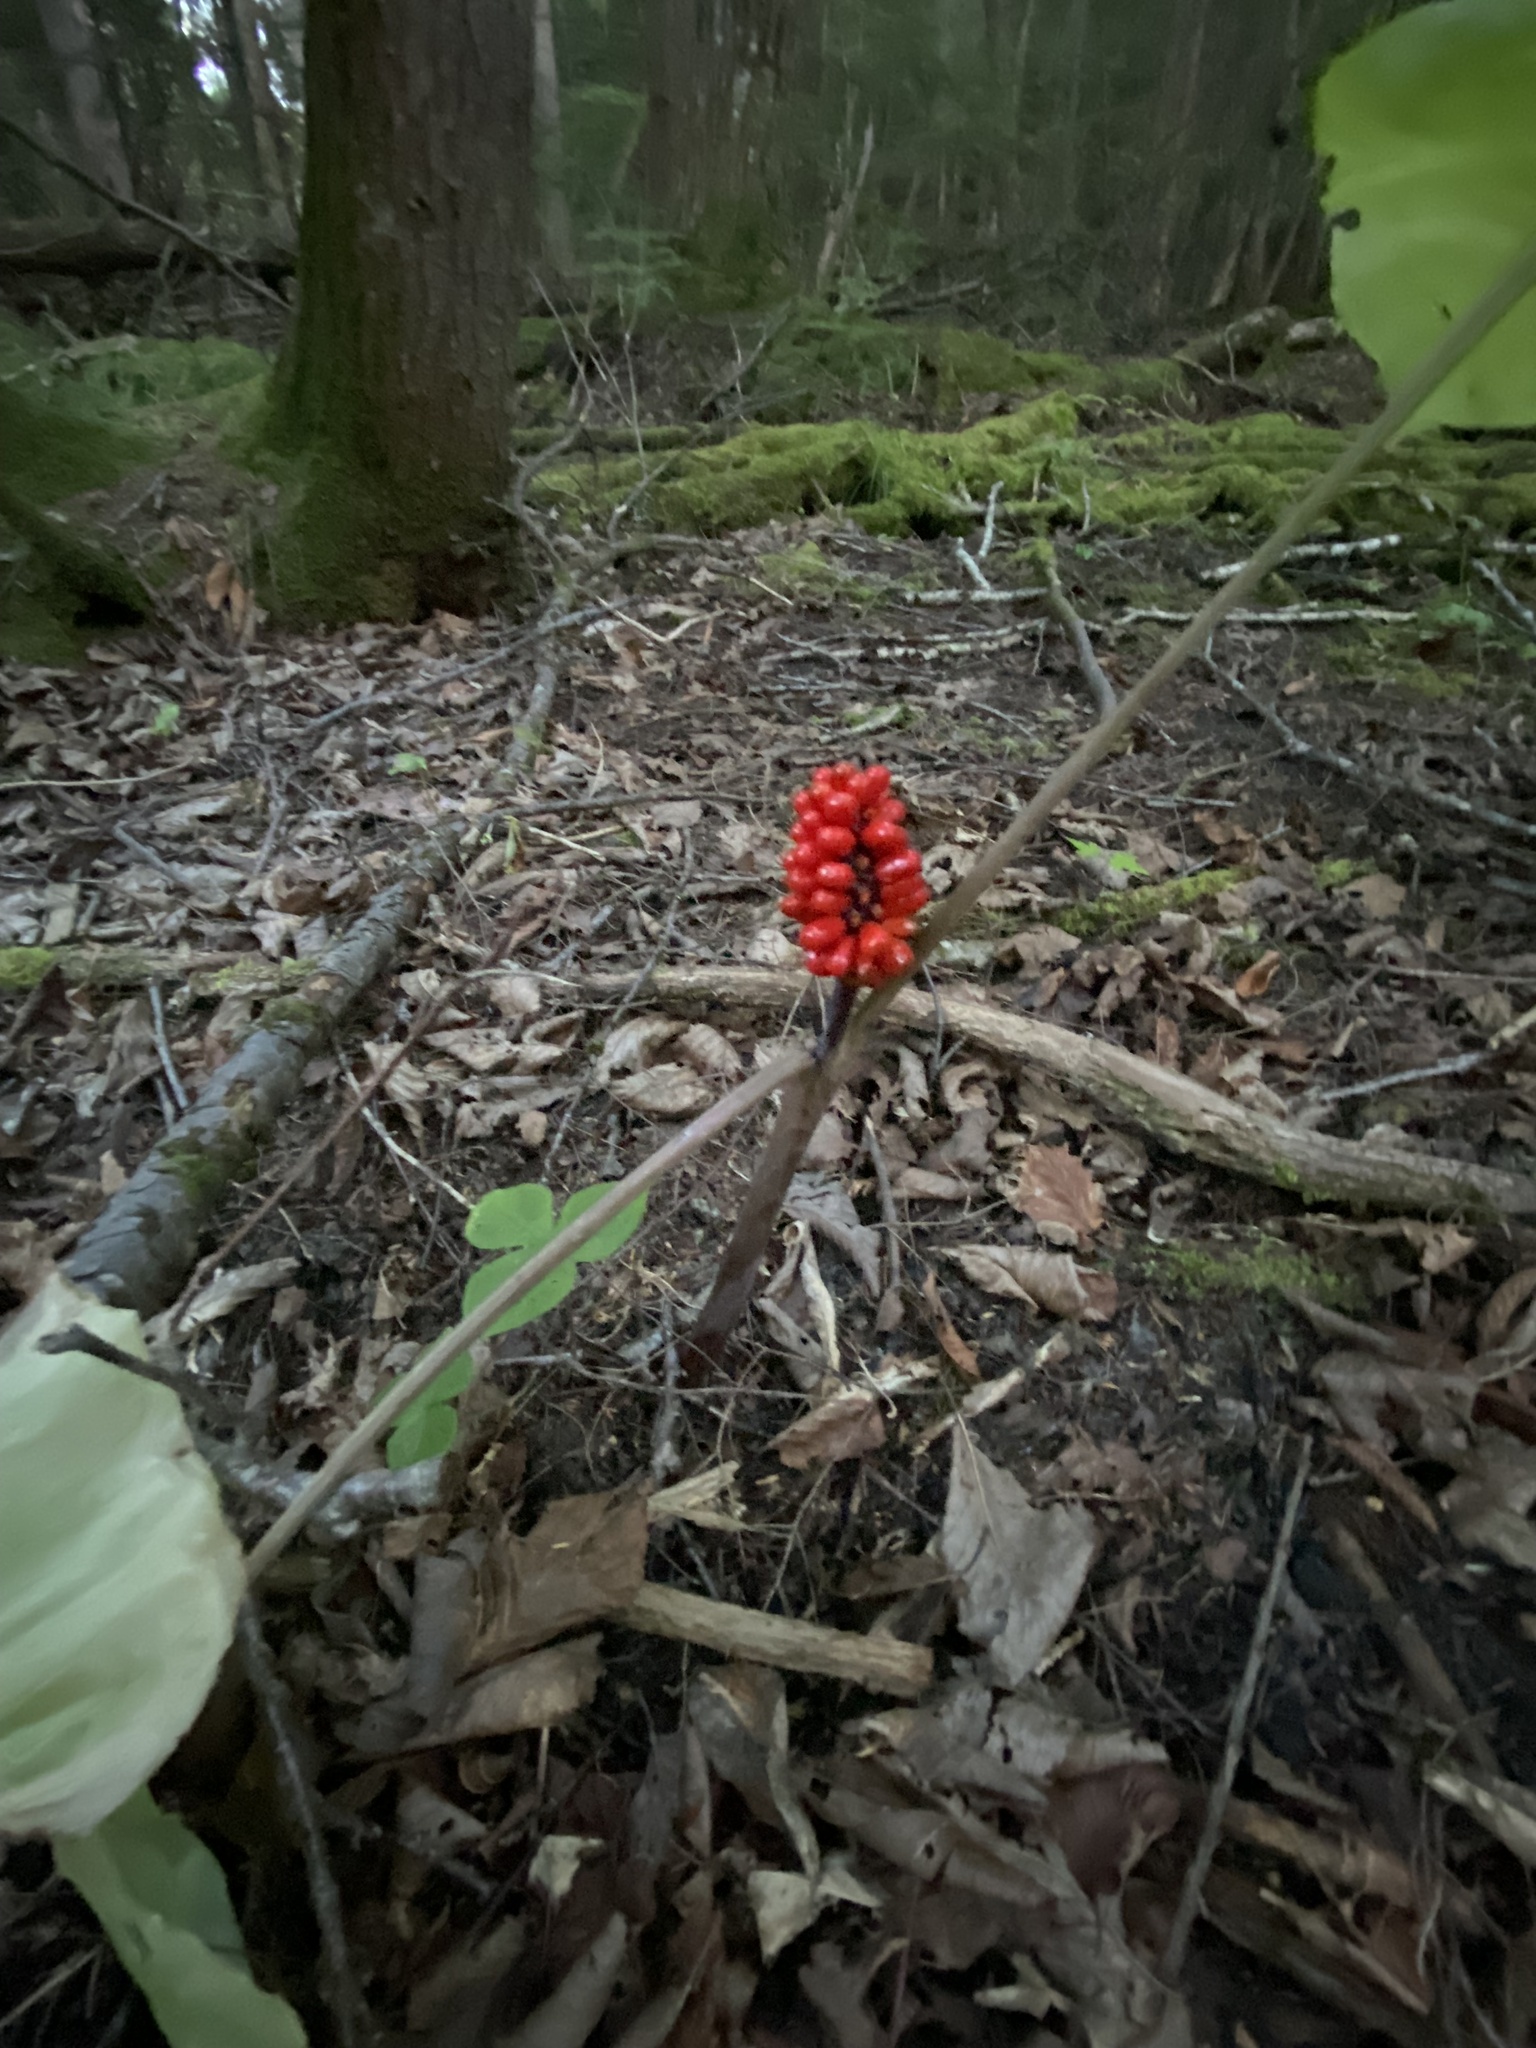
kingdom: Plantae
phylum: Tracheophyta
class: Liliopsida
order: Alismatales
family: Araceae
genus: Arisaema
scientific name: Arisaema triphyllum
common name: Jack-in-the-pulpit
